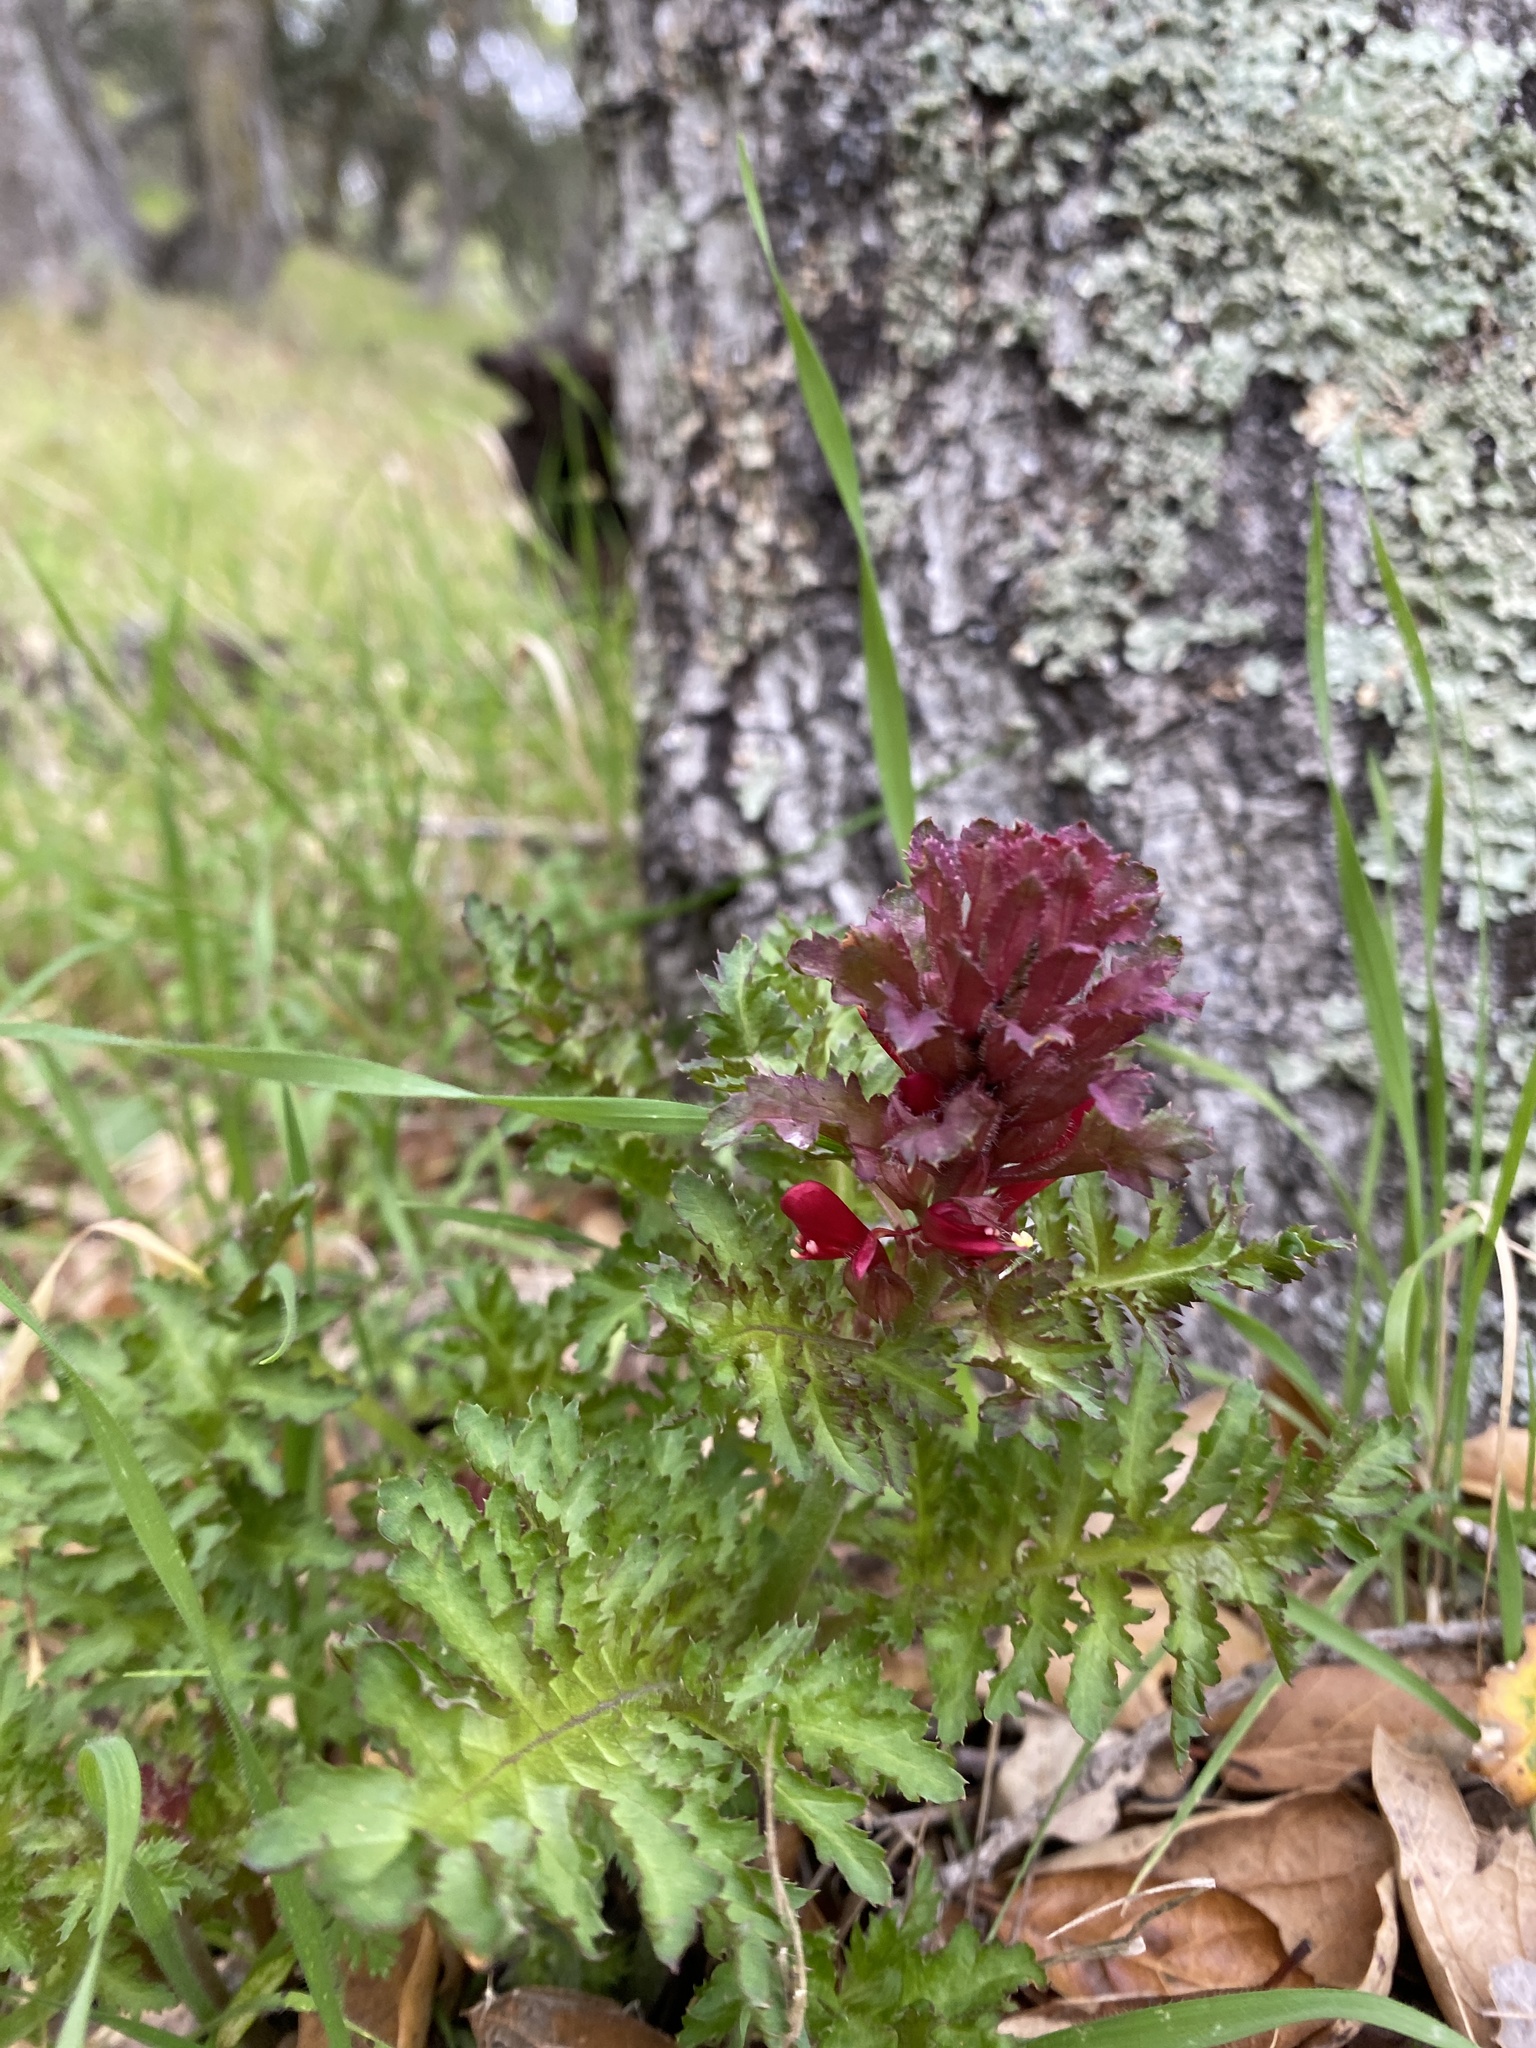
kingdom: Plantae
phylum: Tracheophyta
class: Magnoliopsida
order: Lamiales
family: Orobanchaceae
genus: Pedicularis
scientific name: Pedicularis densiflora
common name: Indian warrior
